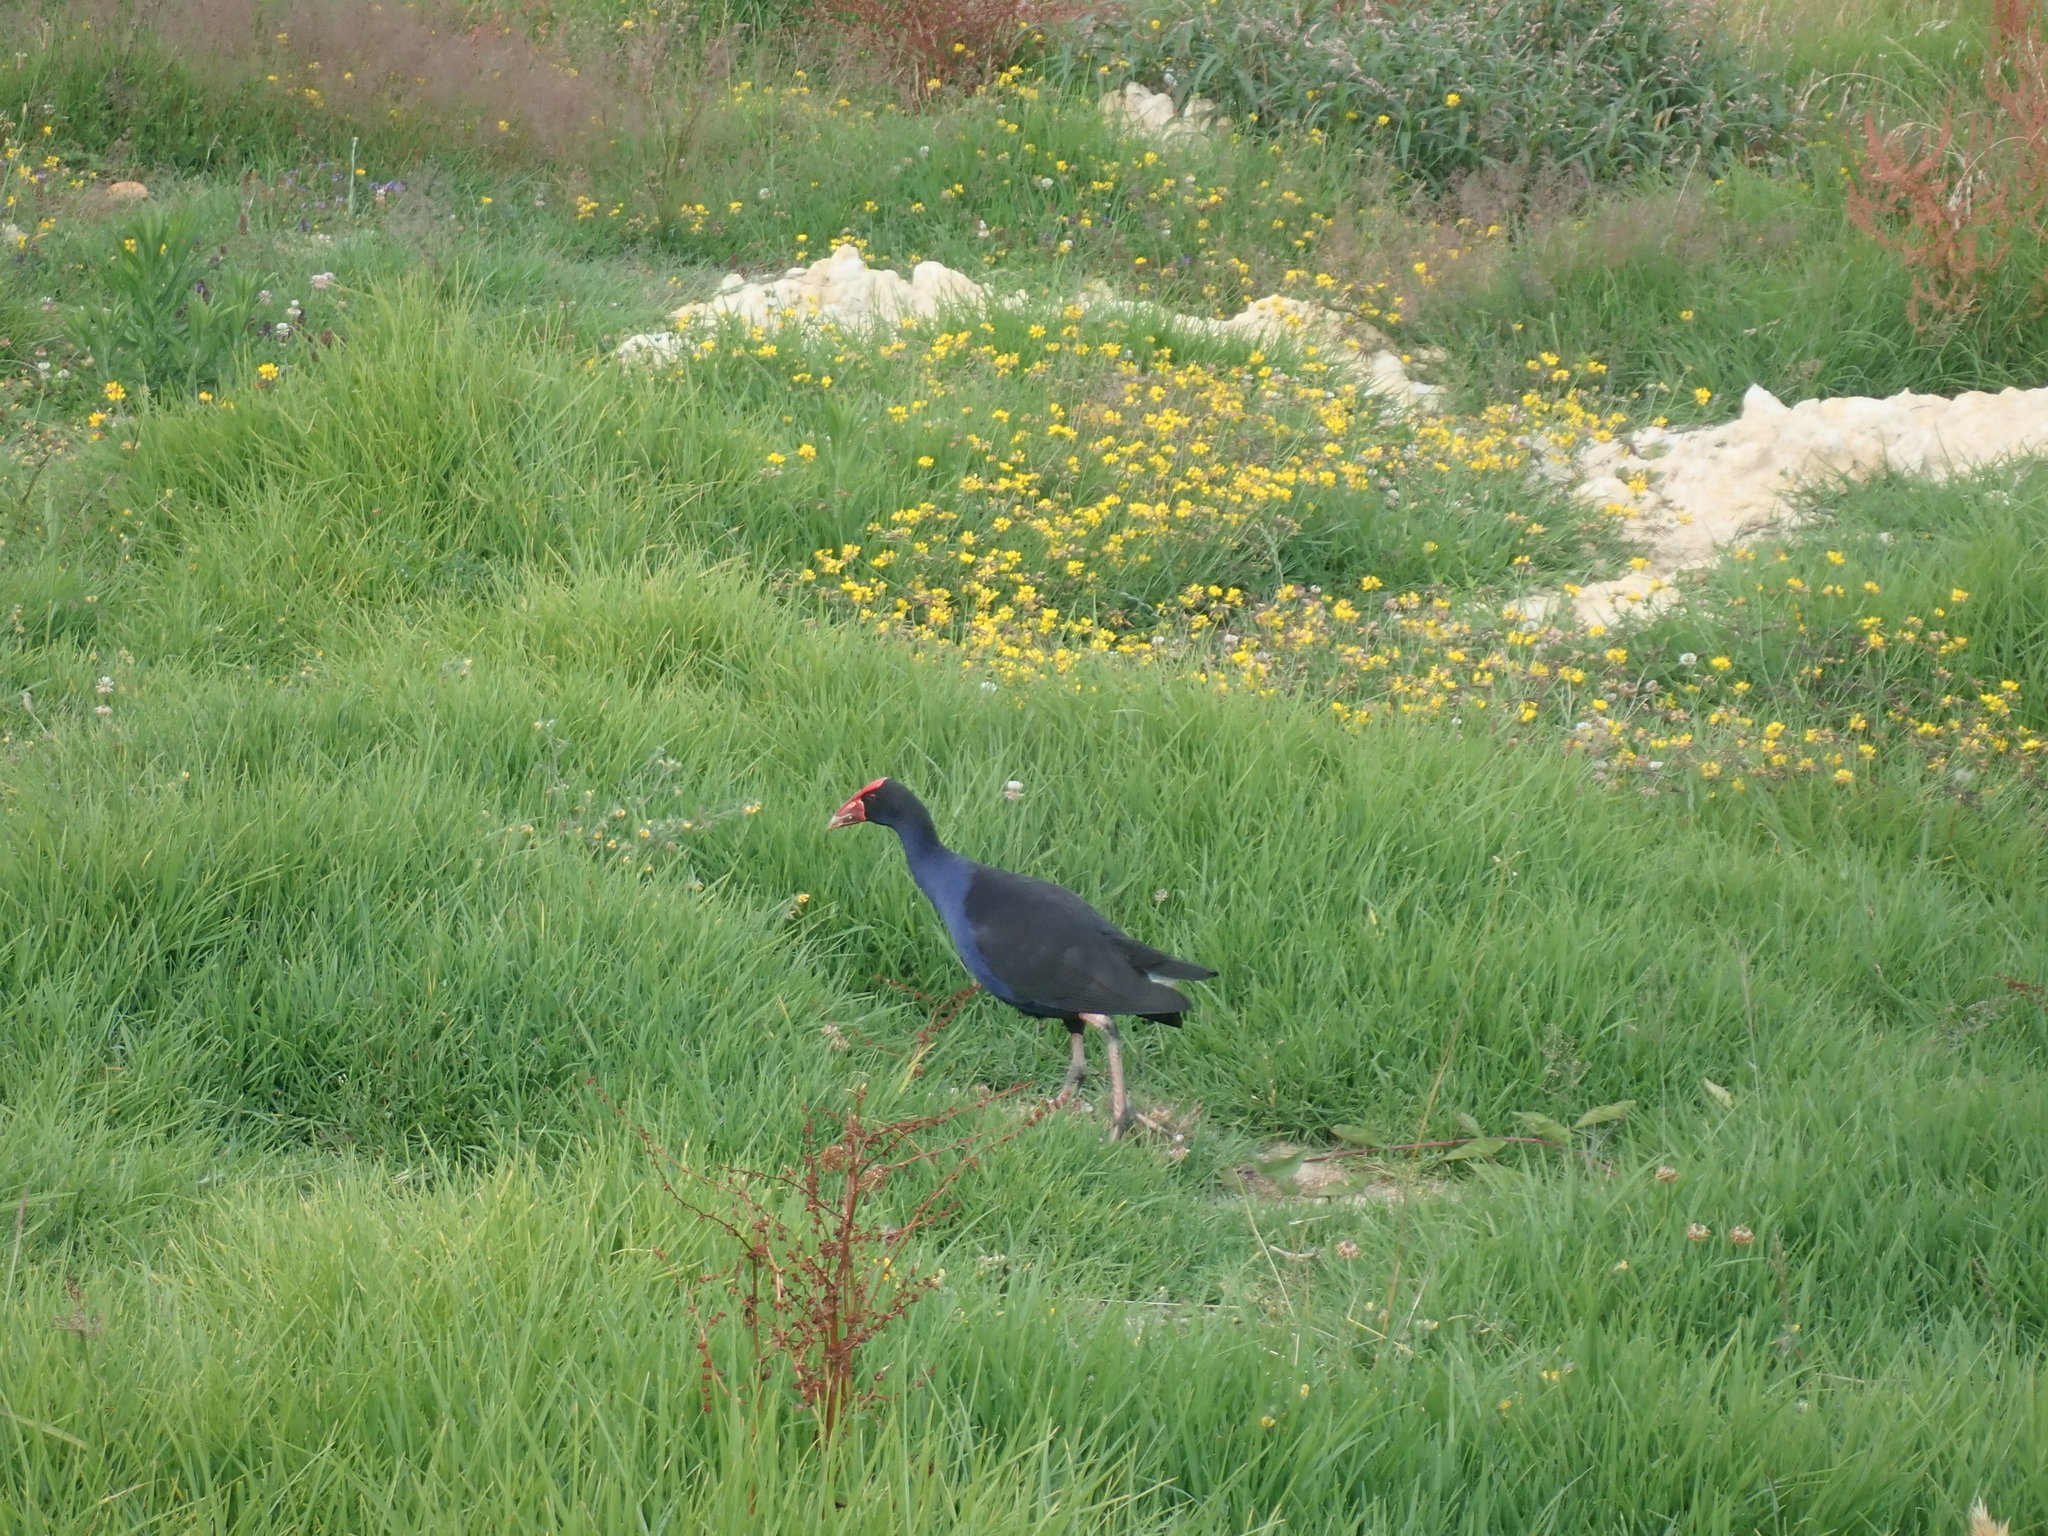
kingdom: Animalia
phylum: Chordata
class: Aves
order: Gruiformes
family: Rallidae
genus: Porphyrio
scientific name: Porphyrio melanotus
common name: Australasian swamphen
